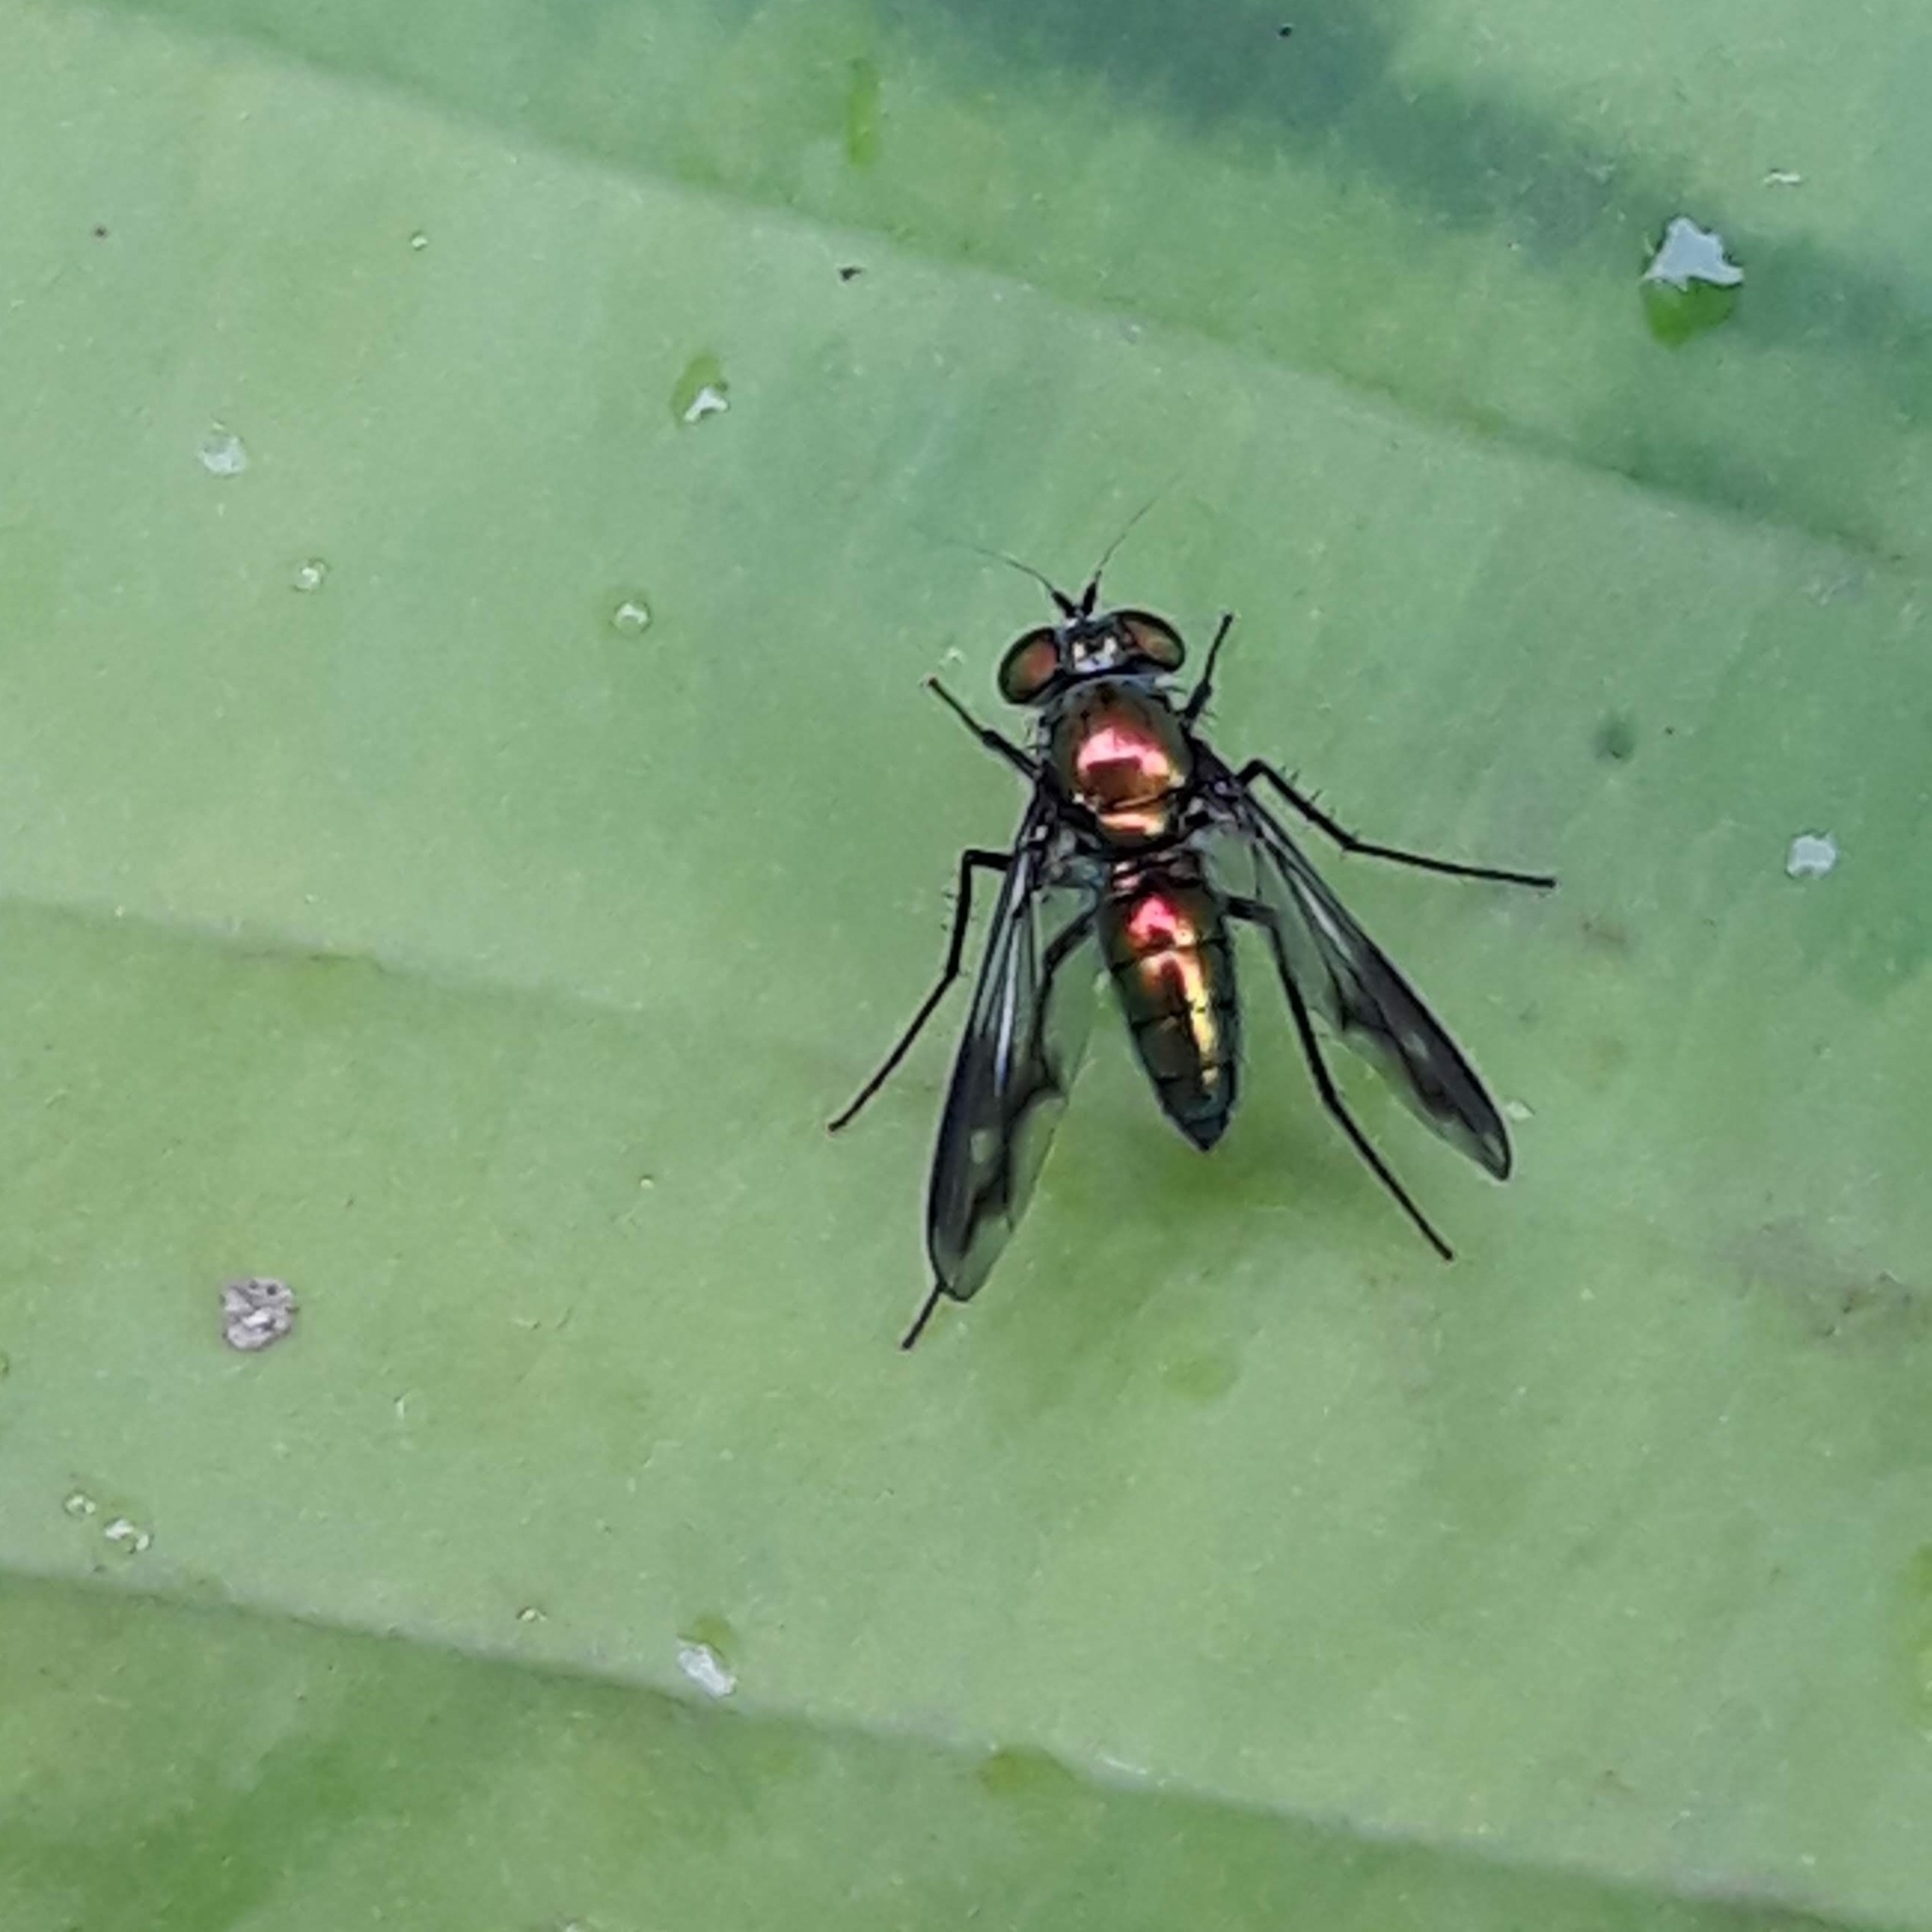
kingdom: Animalia
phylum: Arthropoda
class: Insecta
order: Diptera
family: Dolichopodidae
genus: Condylostylus
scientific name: Condylostylus patibulatus
